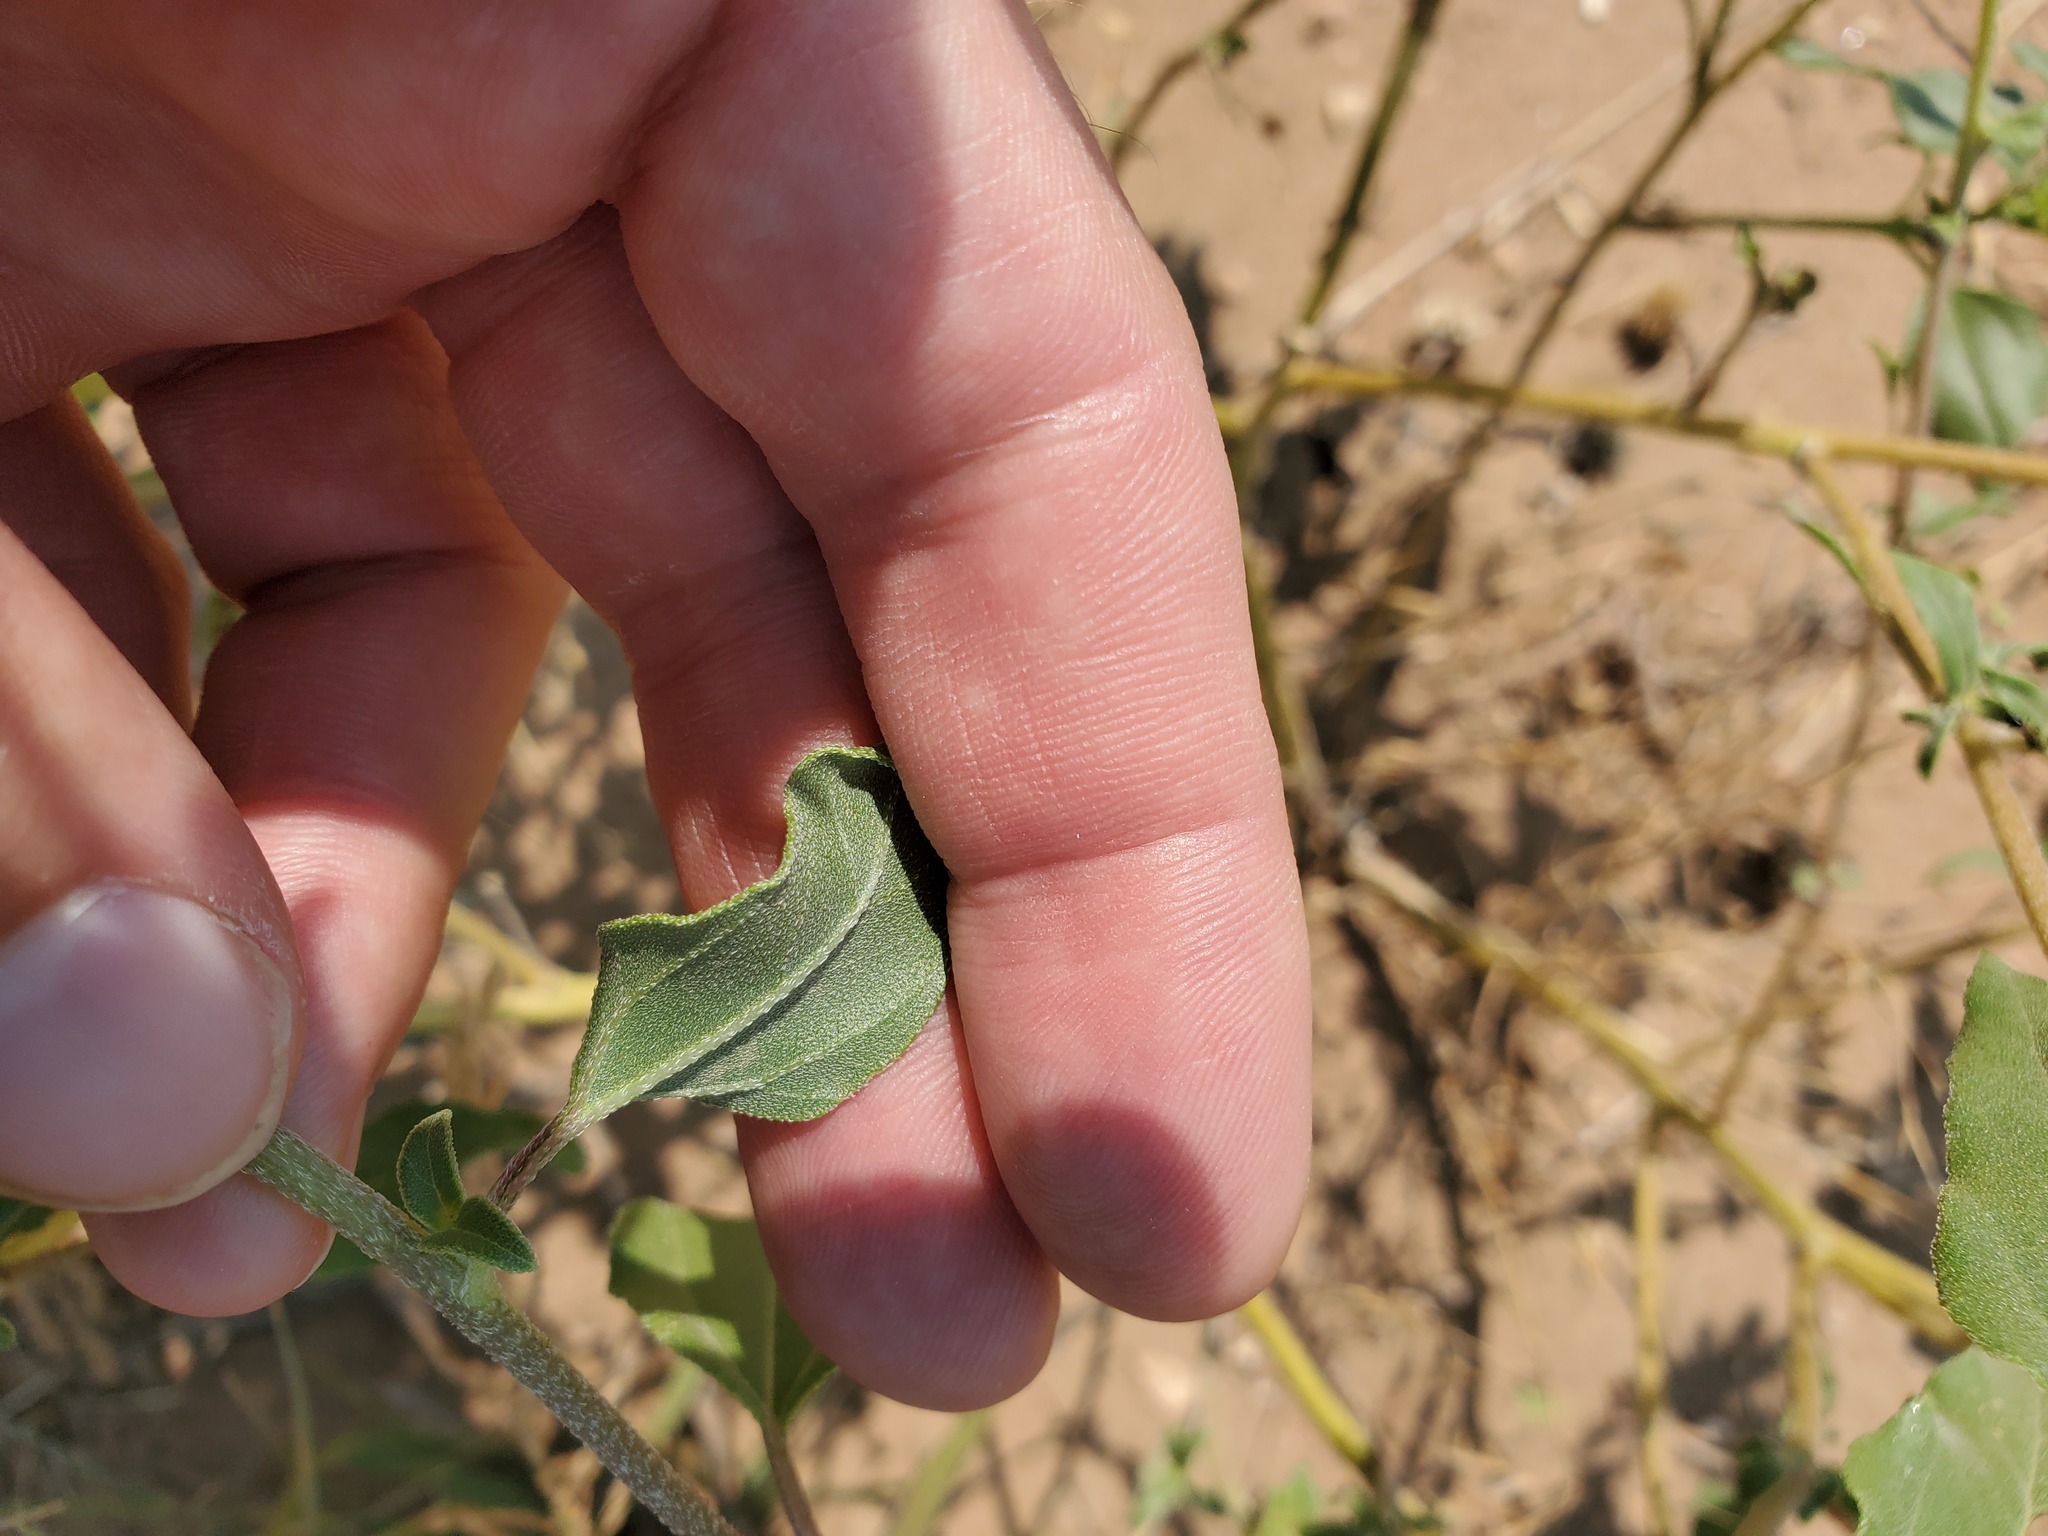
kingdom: Plantae
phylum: Tracheophyta
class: Magnoliopsida
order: Asterales
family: Asteraceae
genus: Helianthus
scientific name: Helianthus annuus
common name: Sunflower
